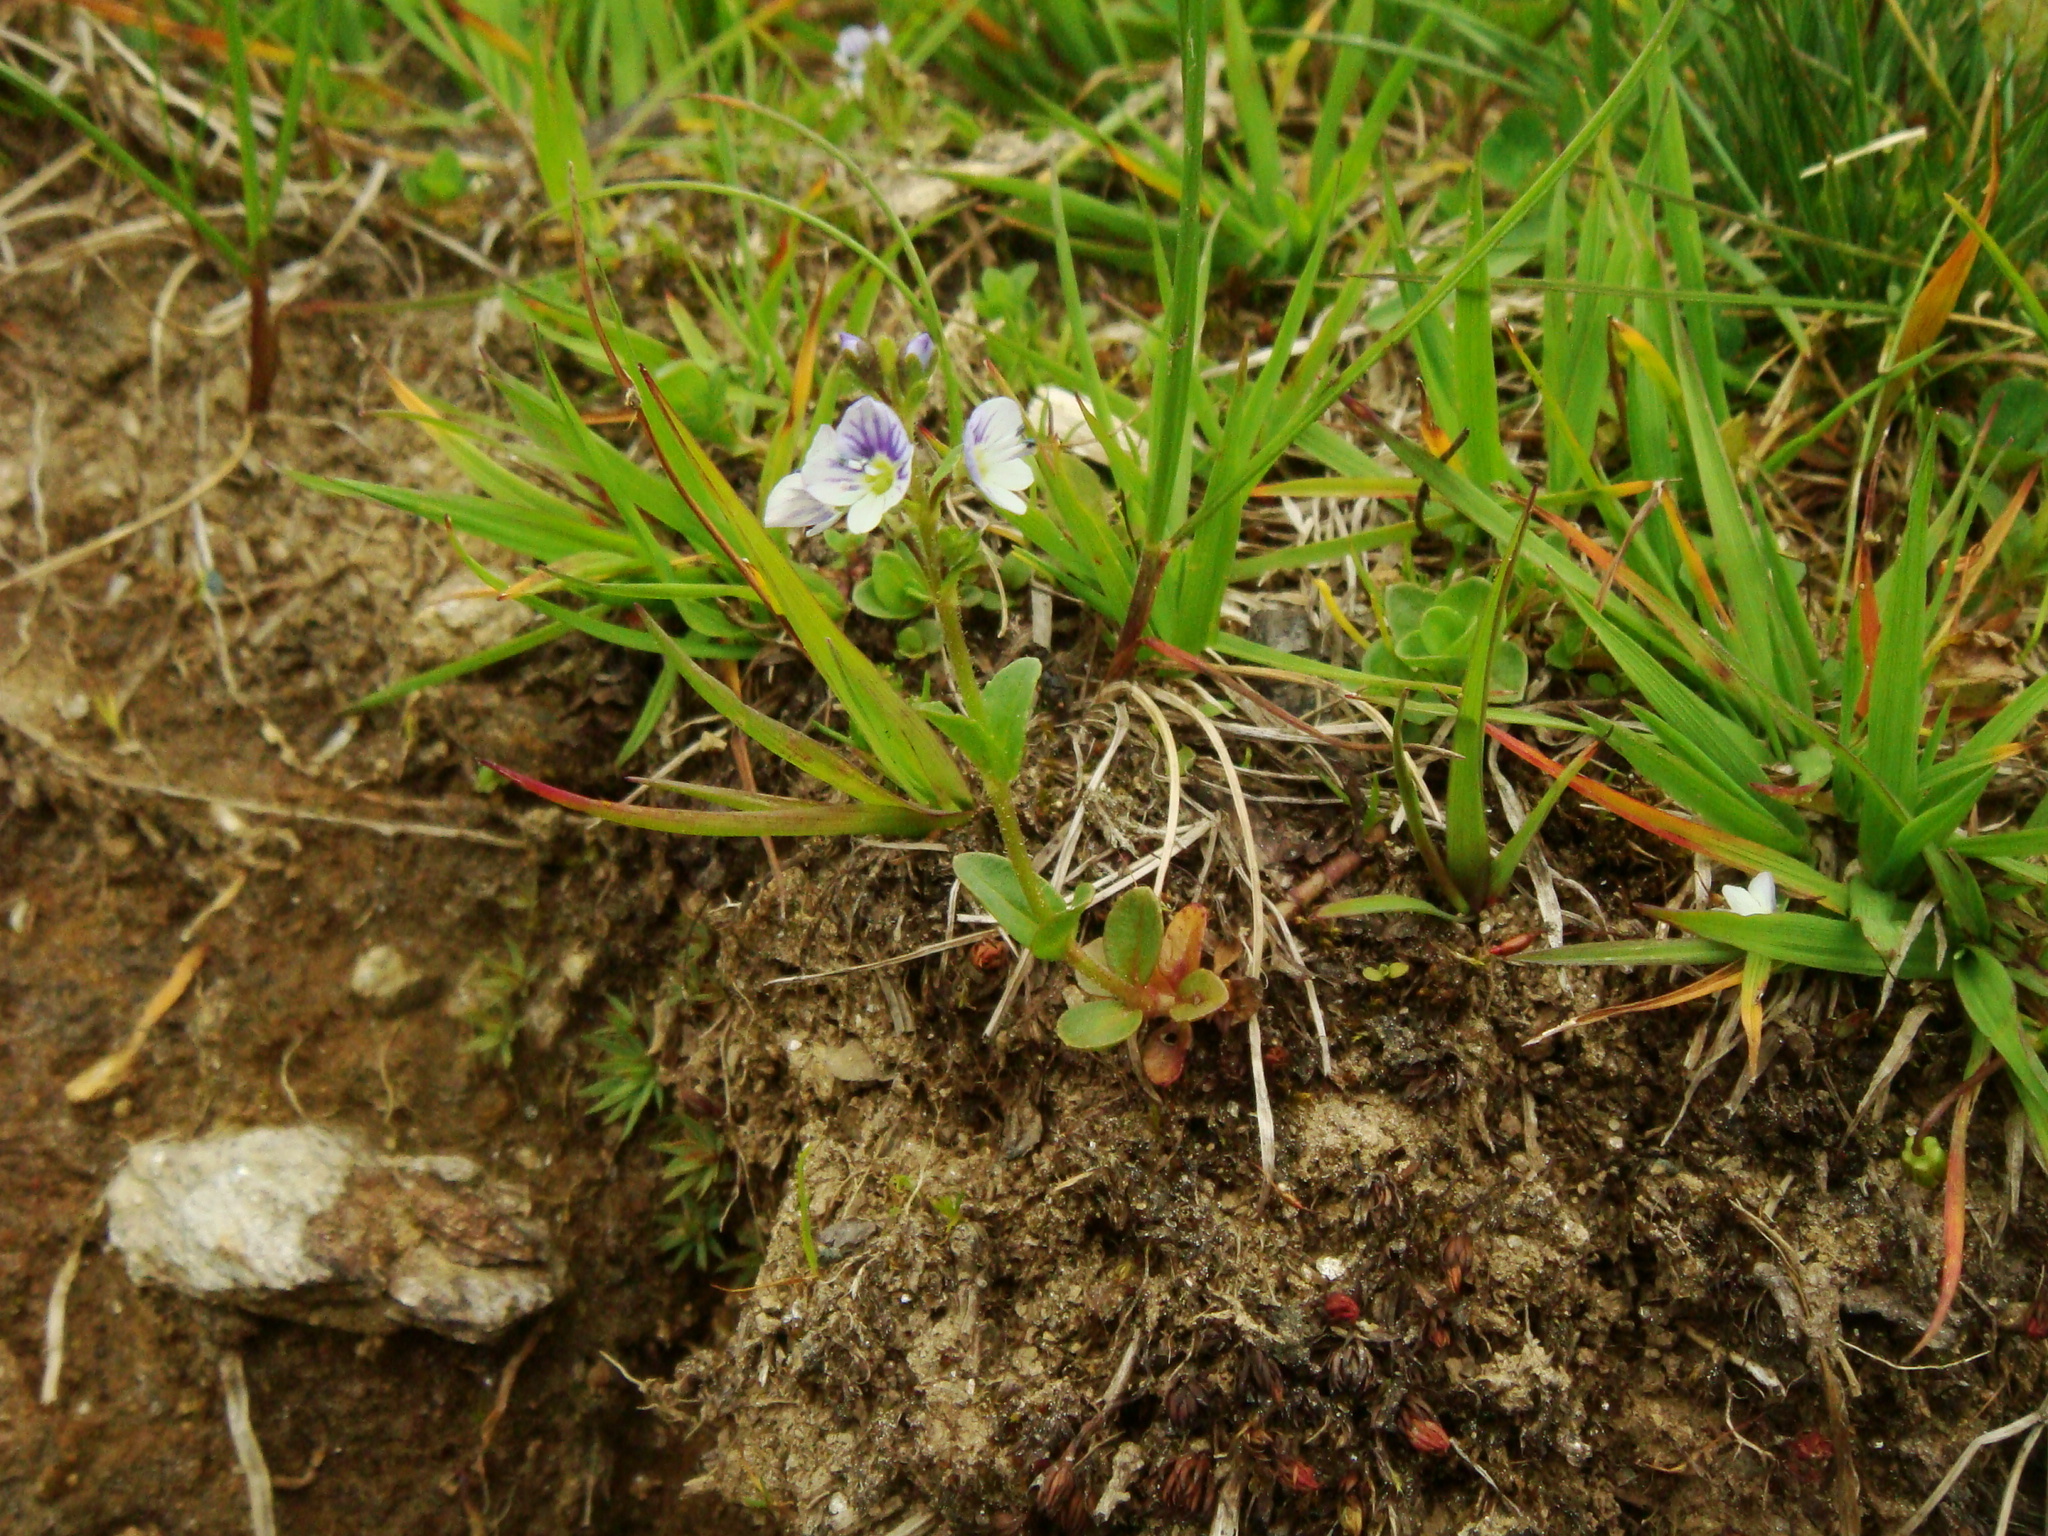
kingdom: Plantae
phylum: Tracheophyta
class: Magnoliopsida
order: Lamiales
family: Plantaginaceae
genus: Veronica
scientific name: Veronica serpyllifolia
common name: Thyme-leaved speedwell
